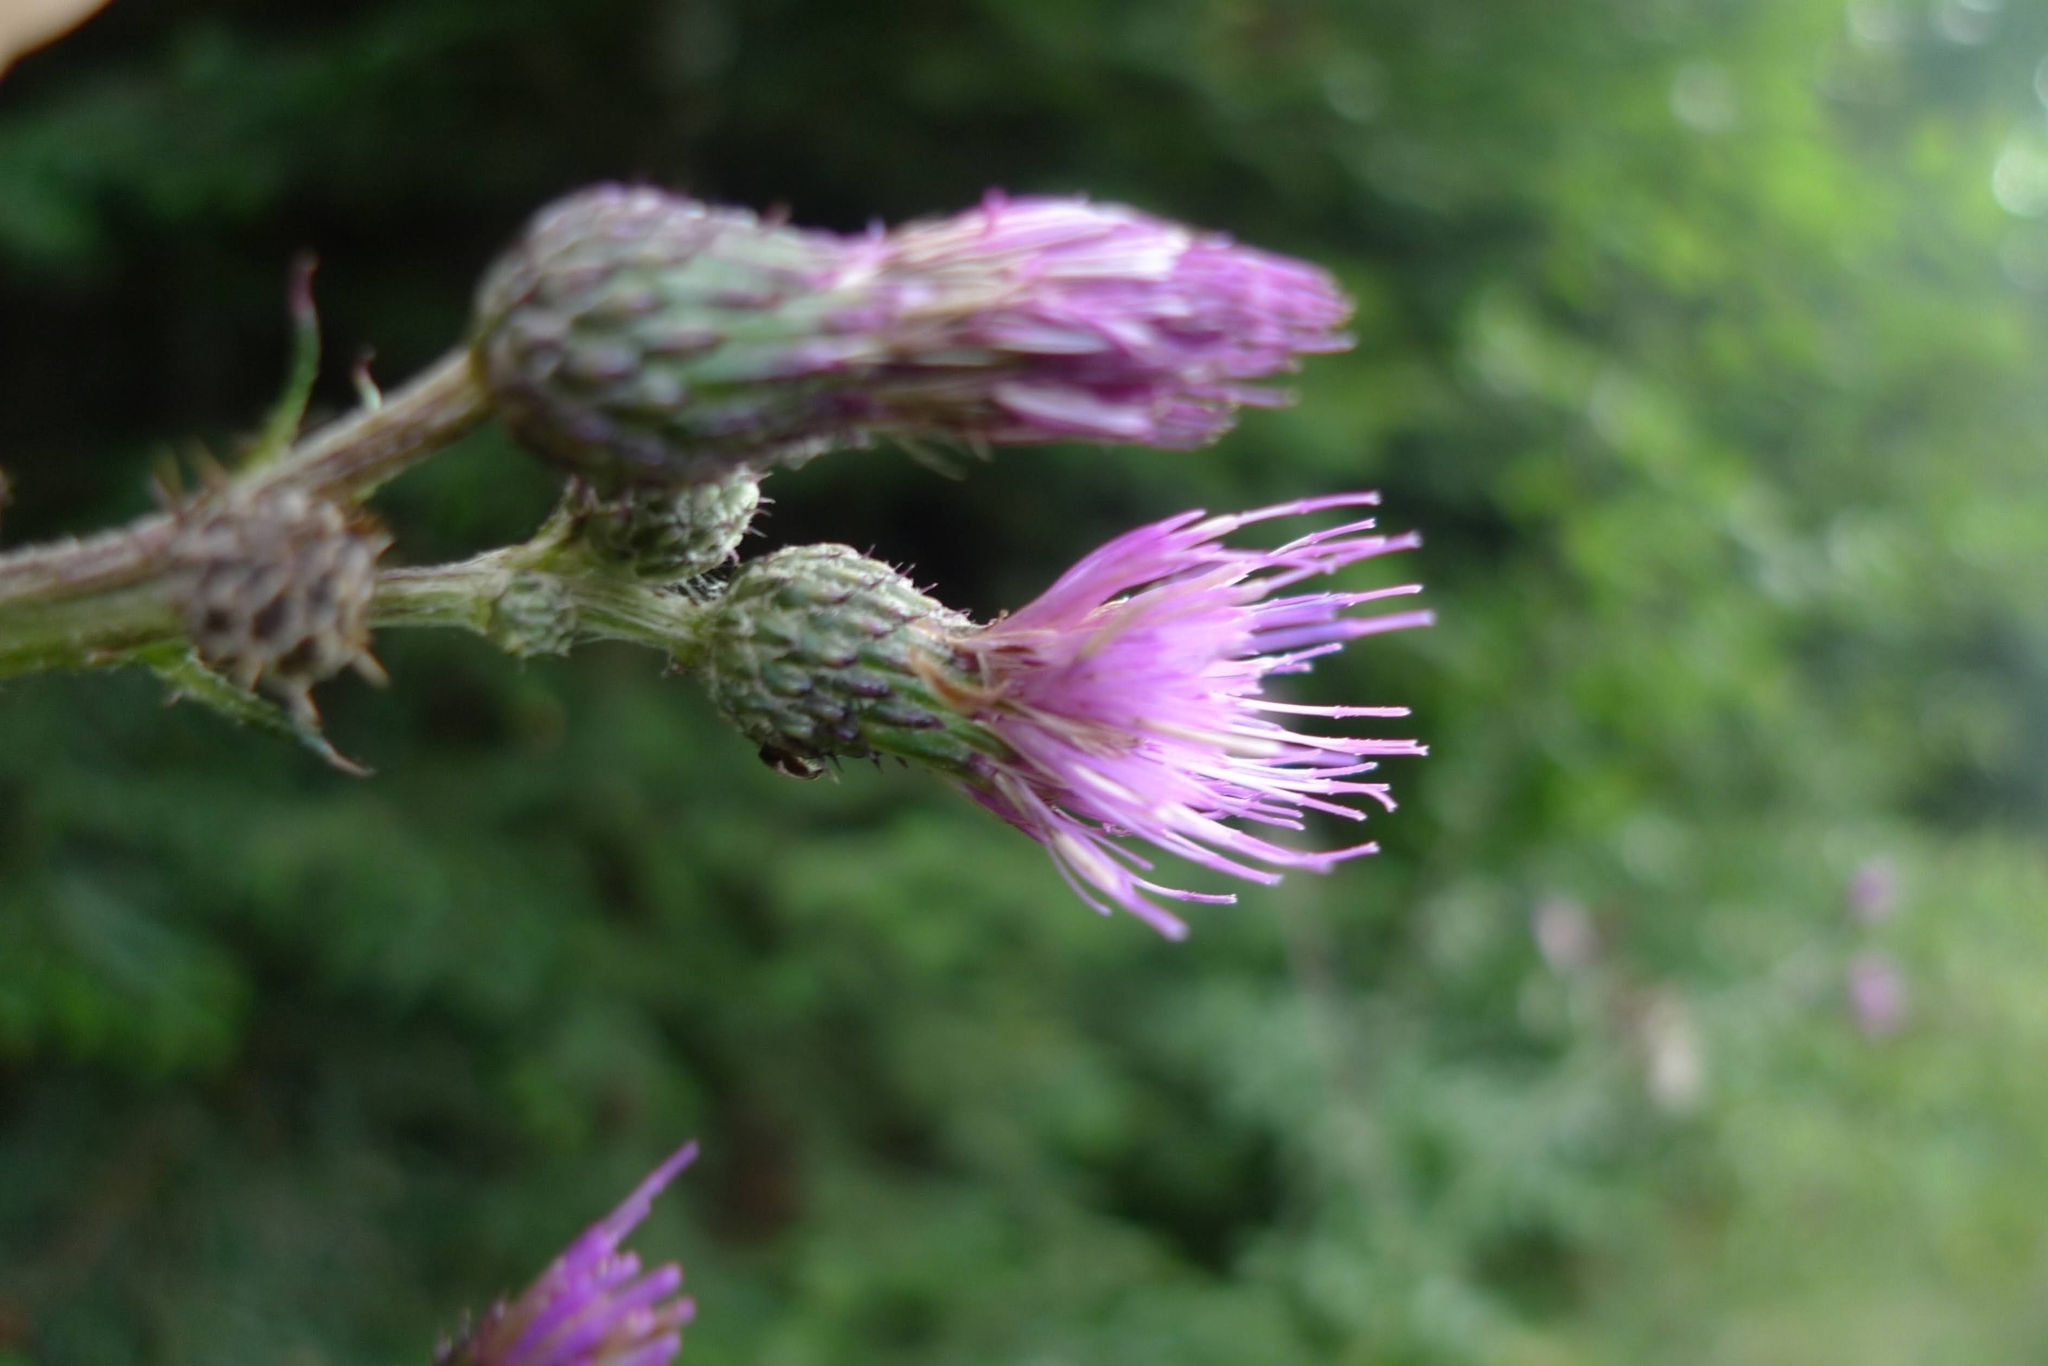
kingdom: Plantae
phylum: Tracheophyta
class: Magnoliopsida
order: Asterales
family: Asteraceae
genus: Cirsium
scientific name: Cirsium palustre
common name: Marsh thistle
